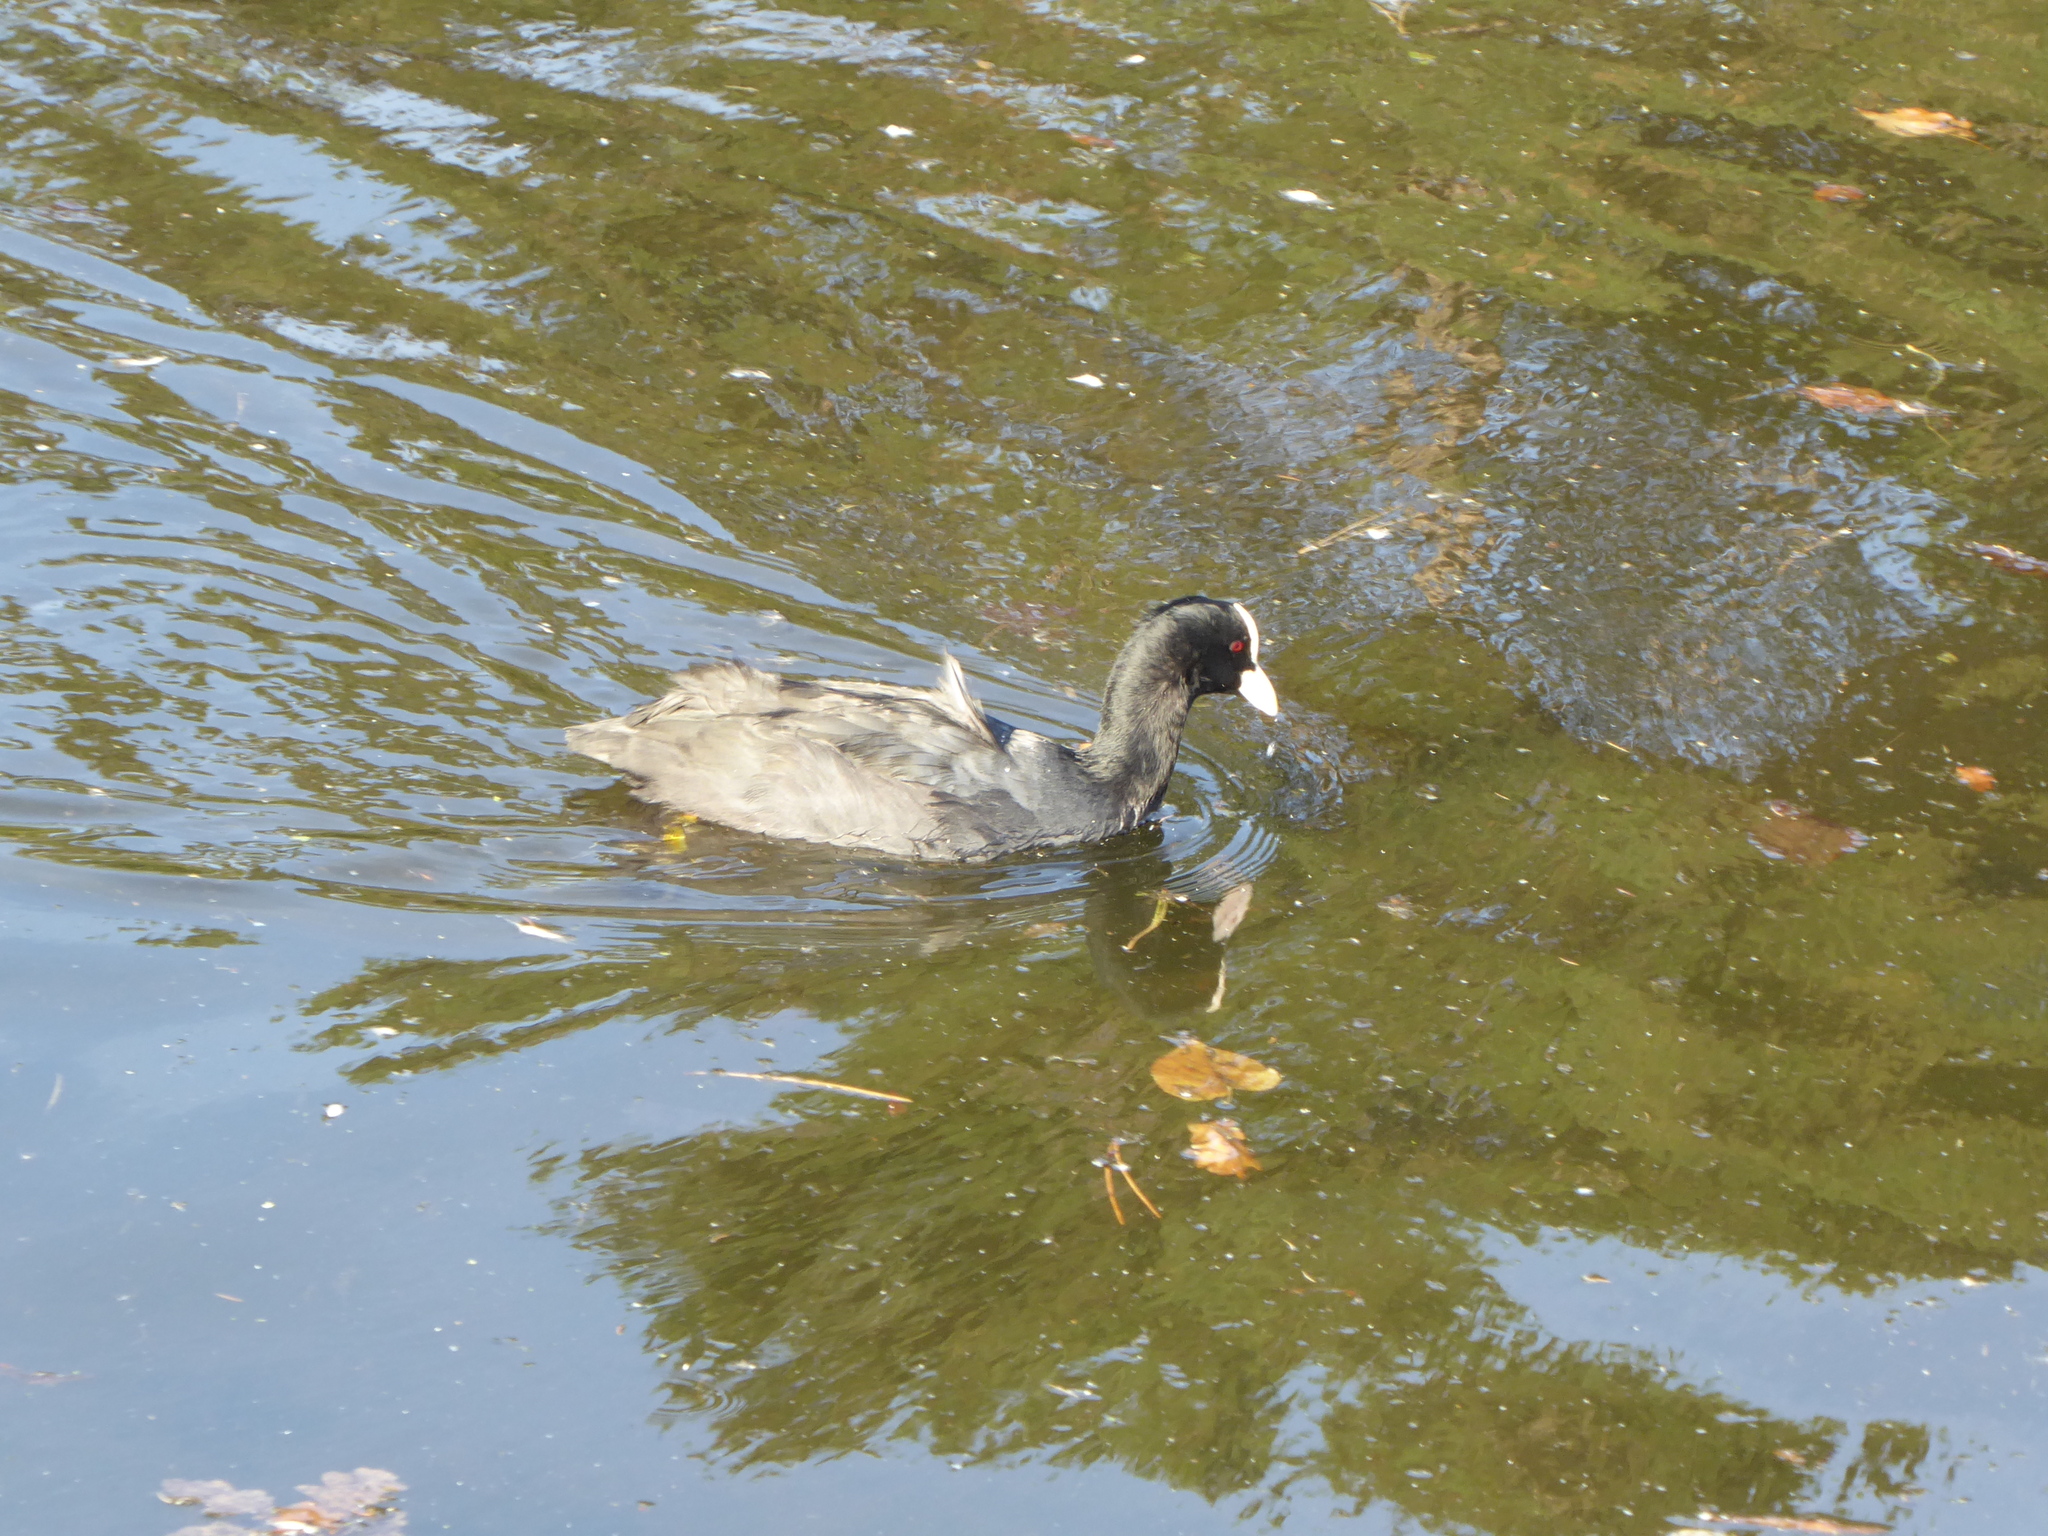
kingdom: Animalia
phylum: Chordata
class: Aves
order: Gruiformes
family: Rallidae
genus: Fulica
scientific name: Fulica atra
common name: Eurasian coot
